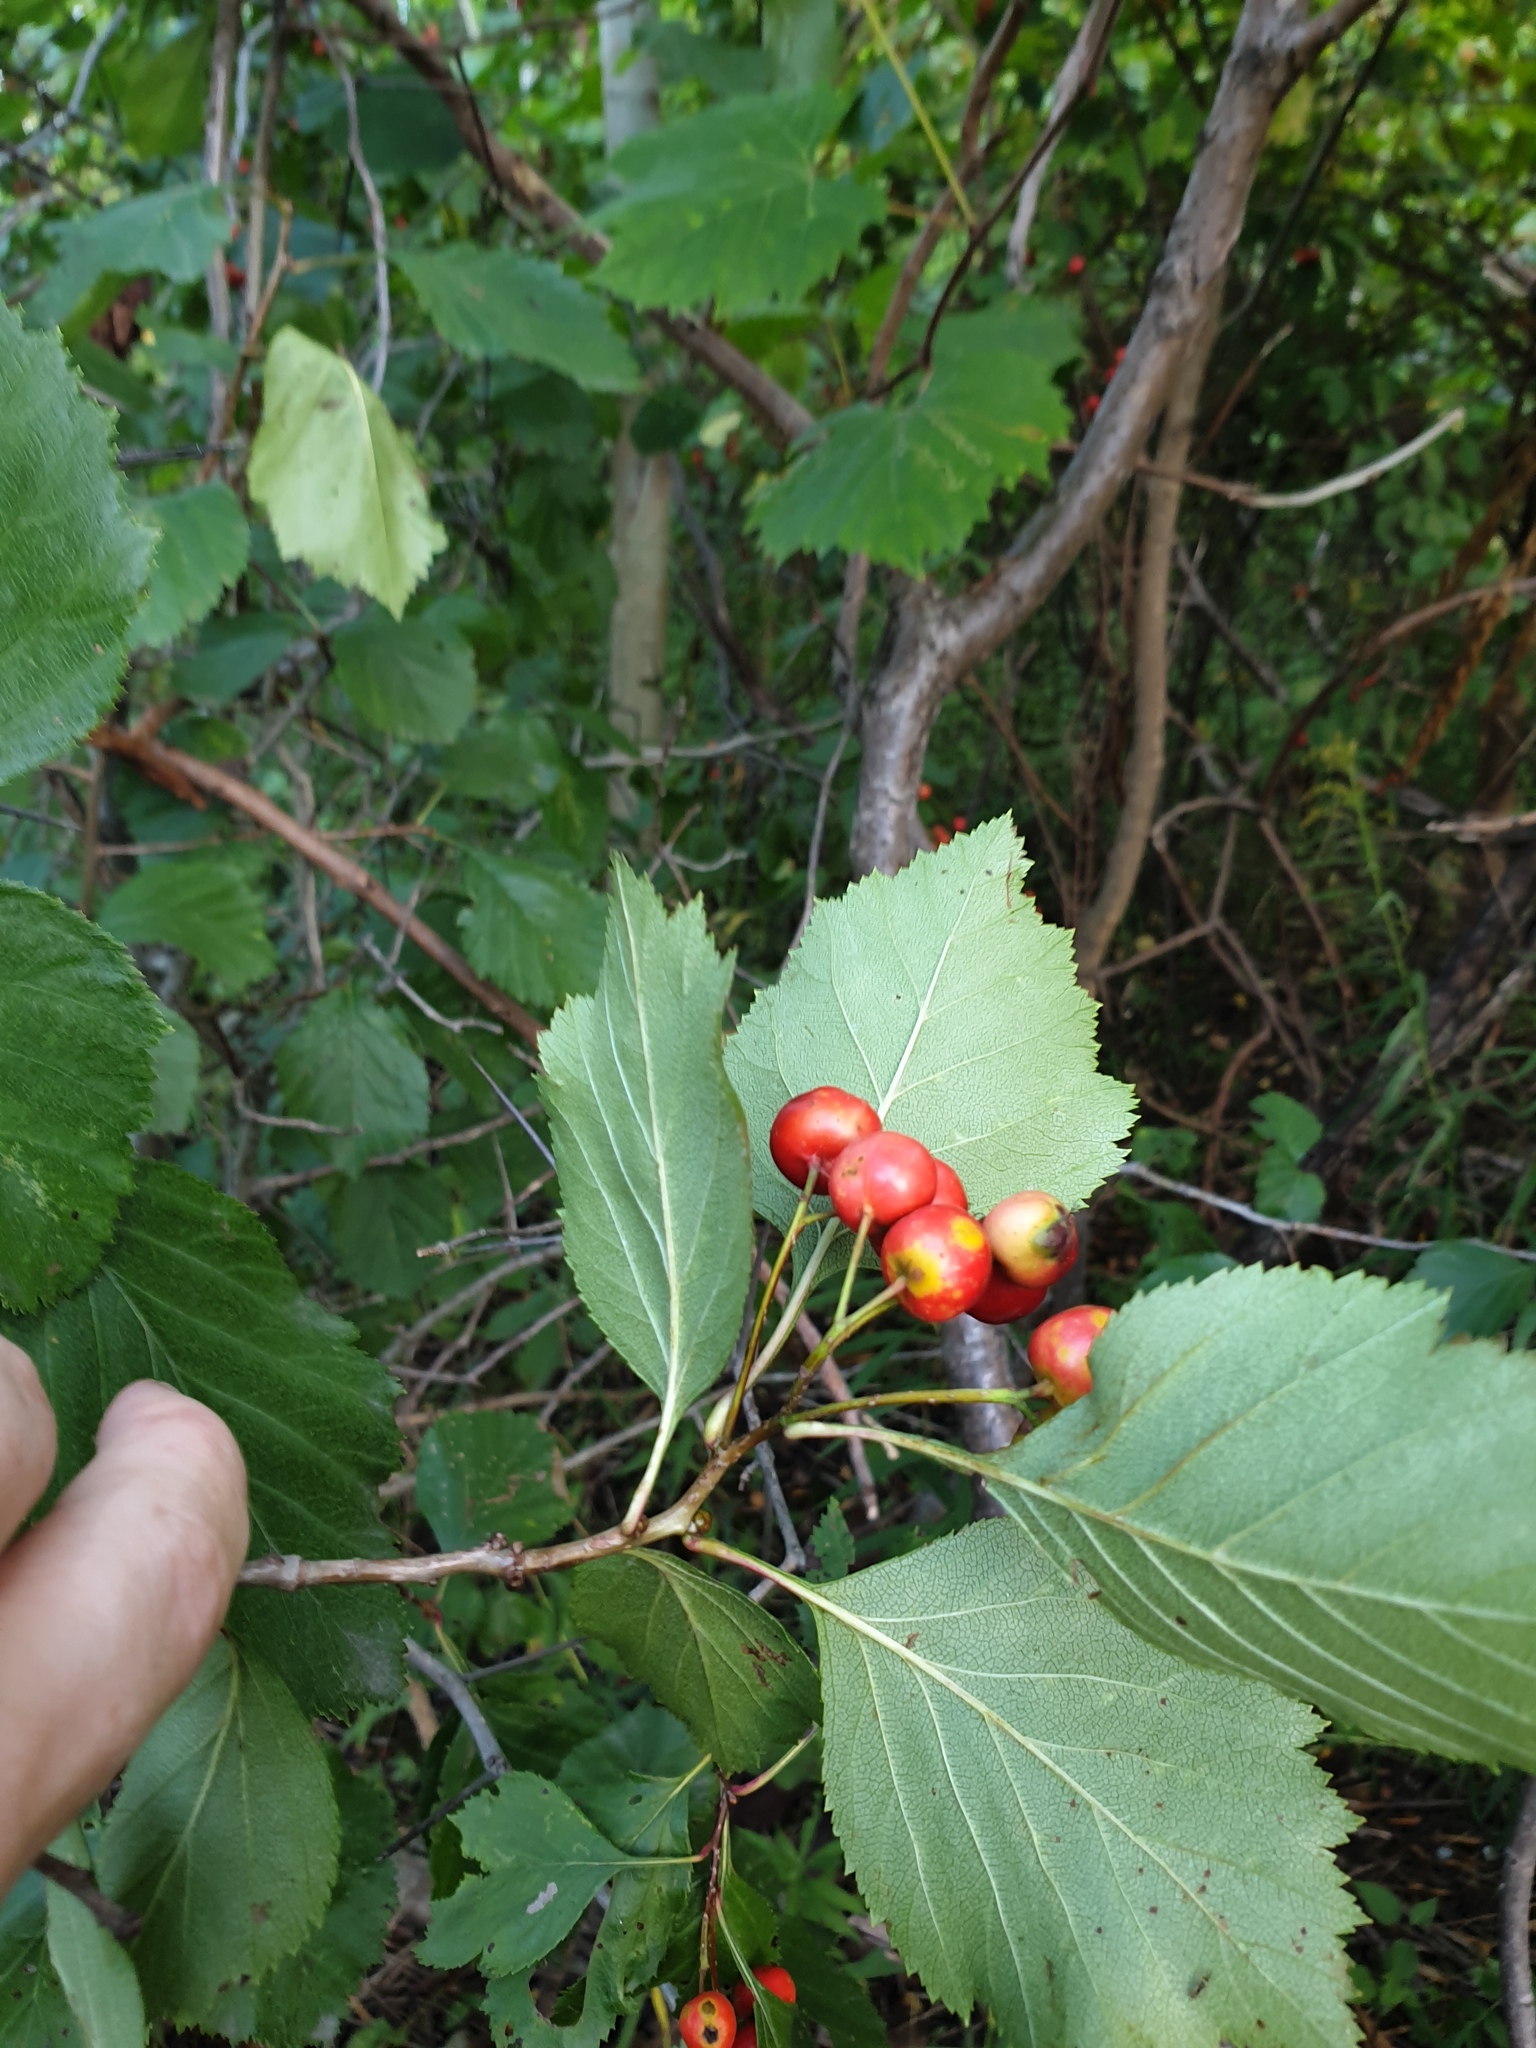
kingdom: Plantae
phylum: Tracheophyta
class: Magnoliopsida
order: Rosales
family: Rosaceae
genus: Crataegus
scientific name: Crataegus scabrida
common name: Rough hawthorn
